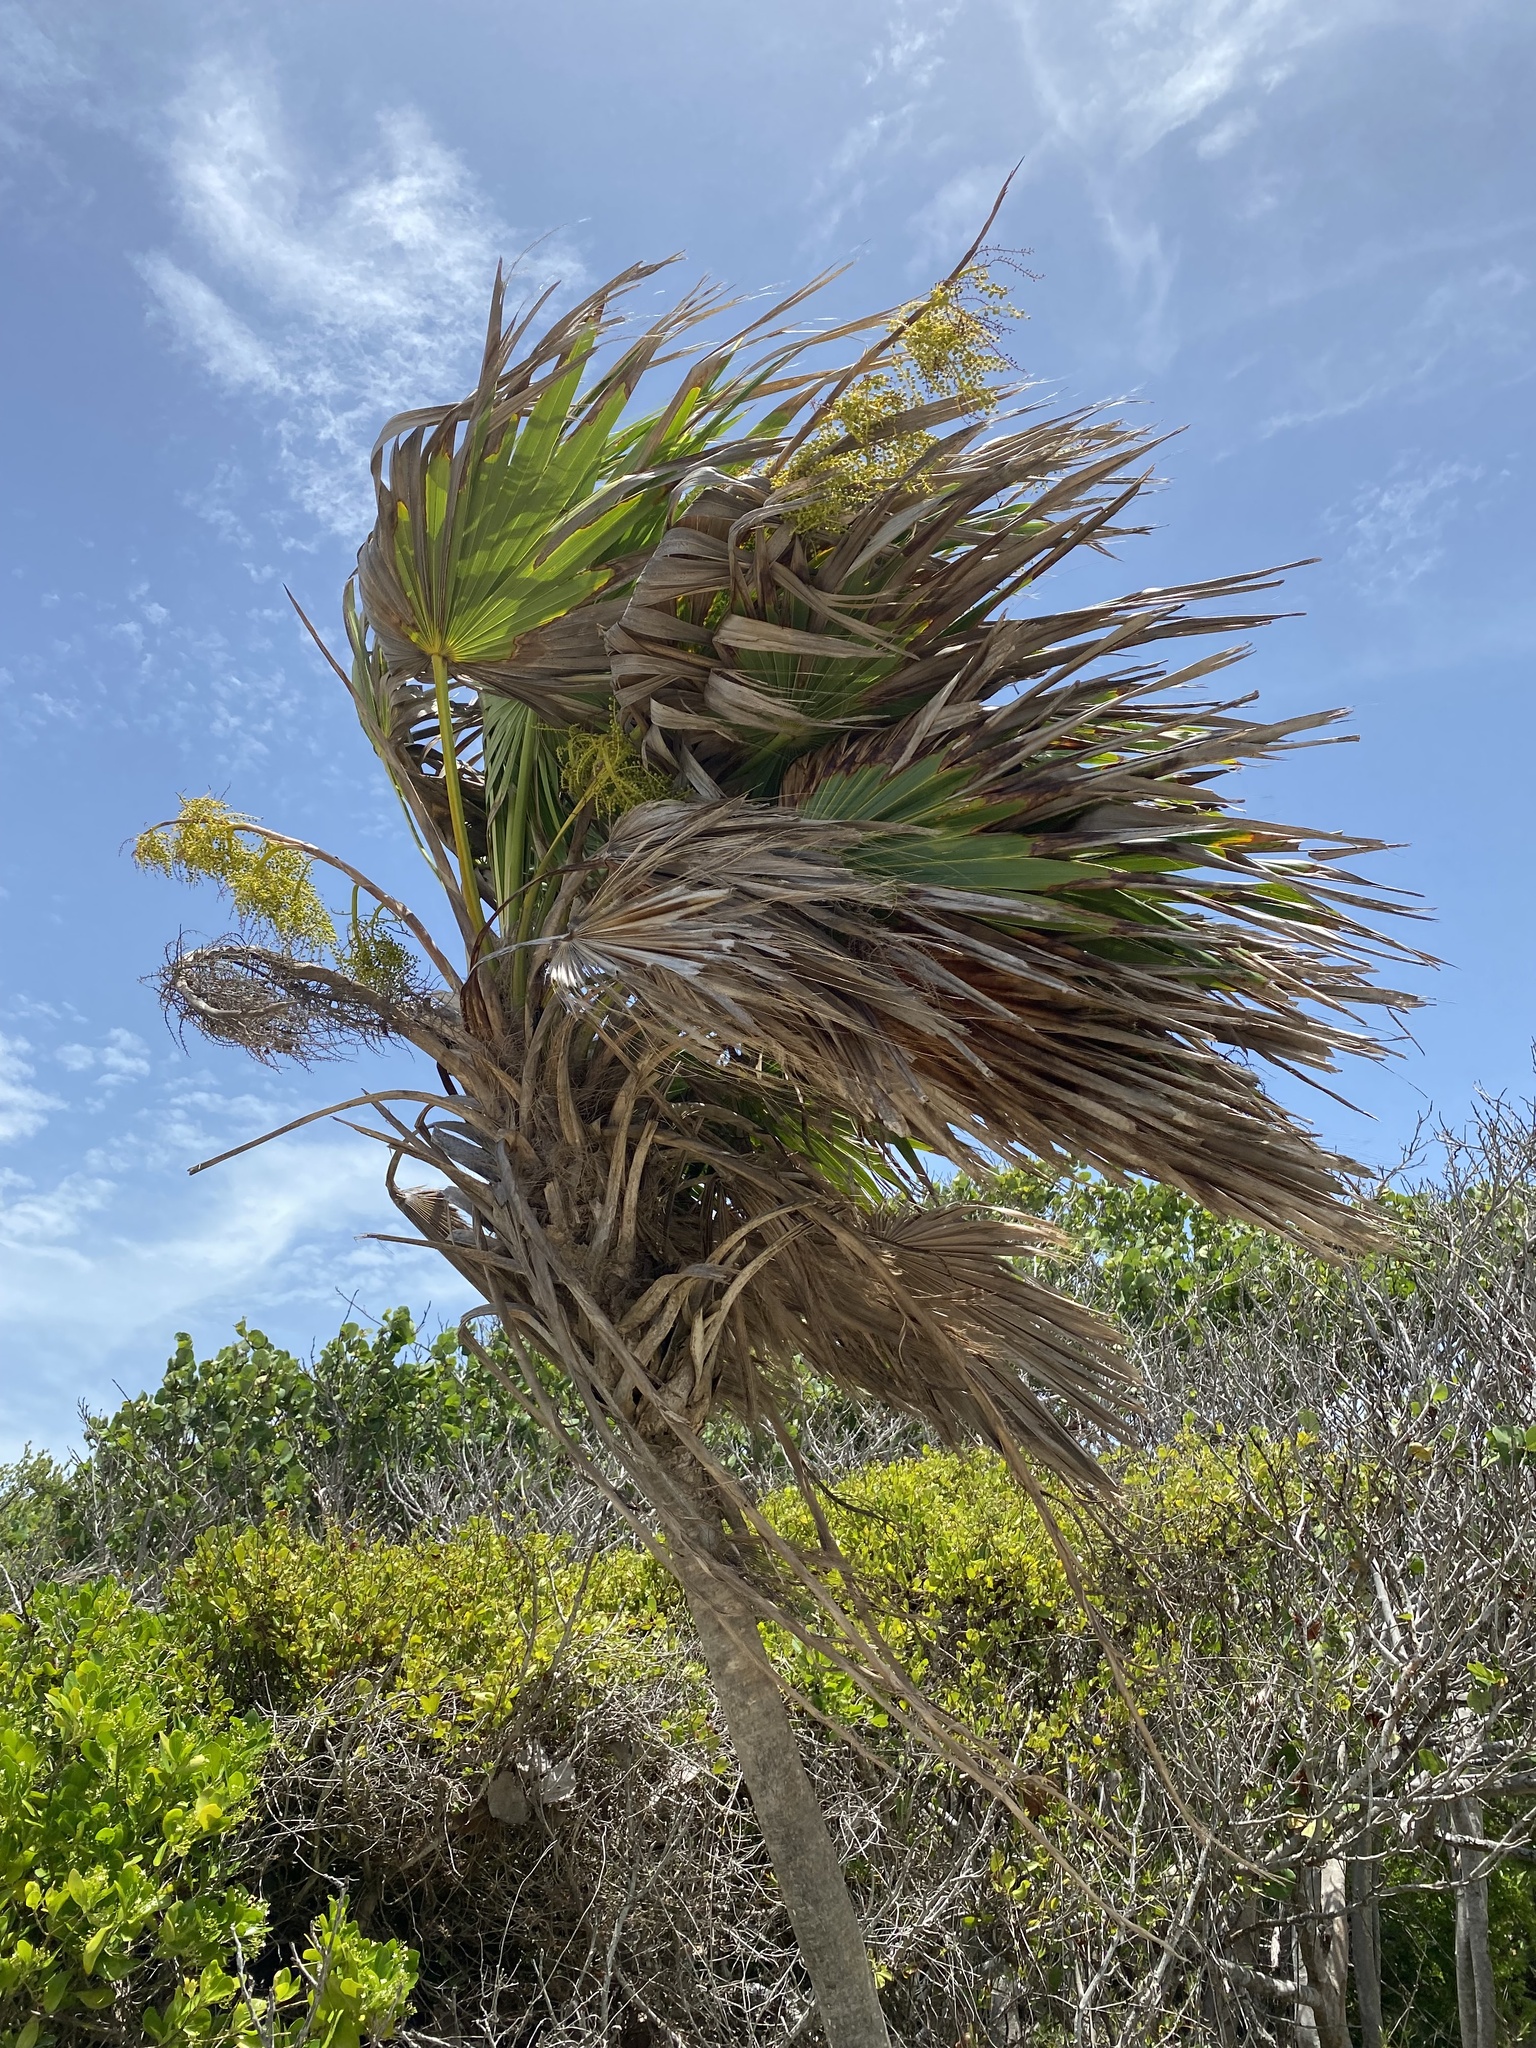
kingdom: Plantae
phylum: Tracheophyta
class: Liliopsida
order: Arecales
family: Arecaceae
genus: Thrinax
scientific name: Thrinax radiata
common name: Florida thatch
